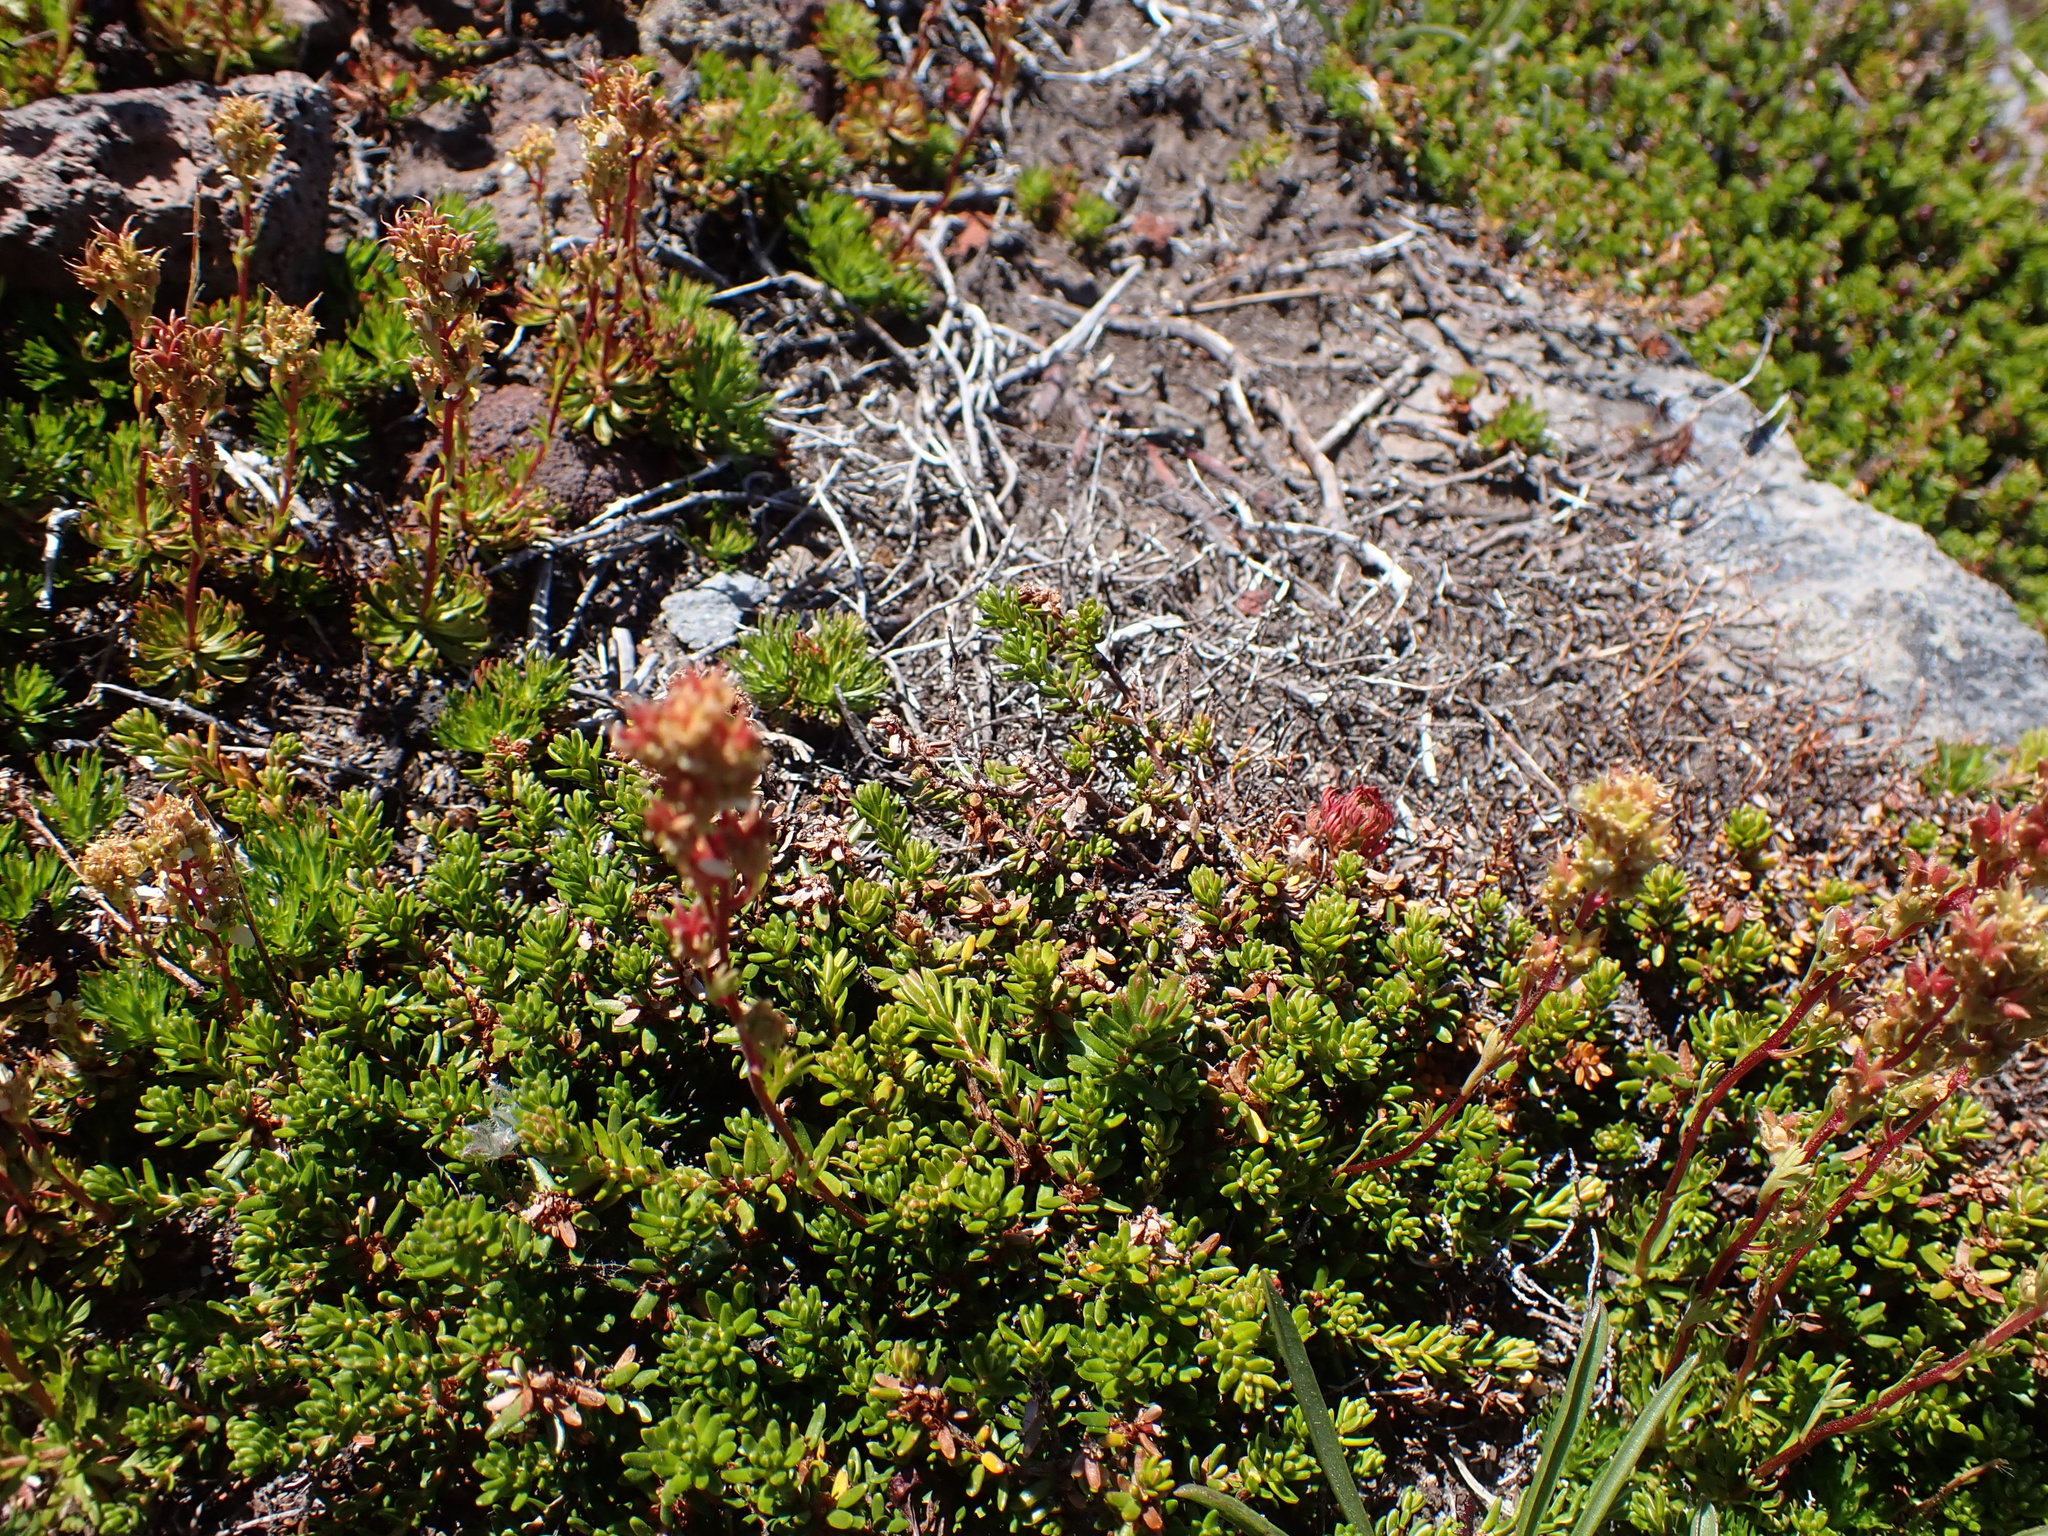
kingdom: Plantae
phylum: Tracheophyta
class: Magnoliopsida
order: Rosales
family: Rosaceae
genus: Luetkea
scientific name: Luetkea pectinata
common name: Partridgefoot
